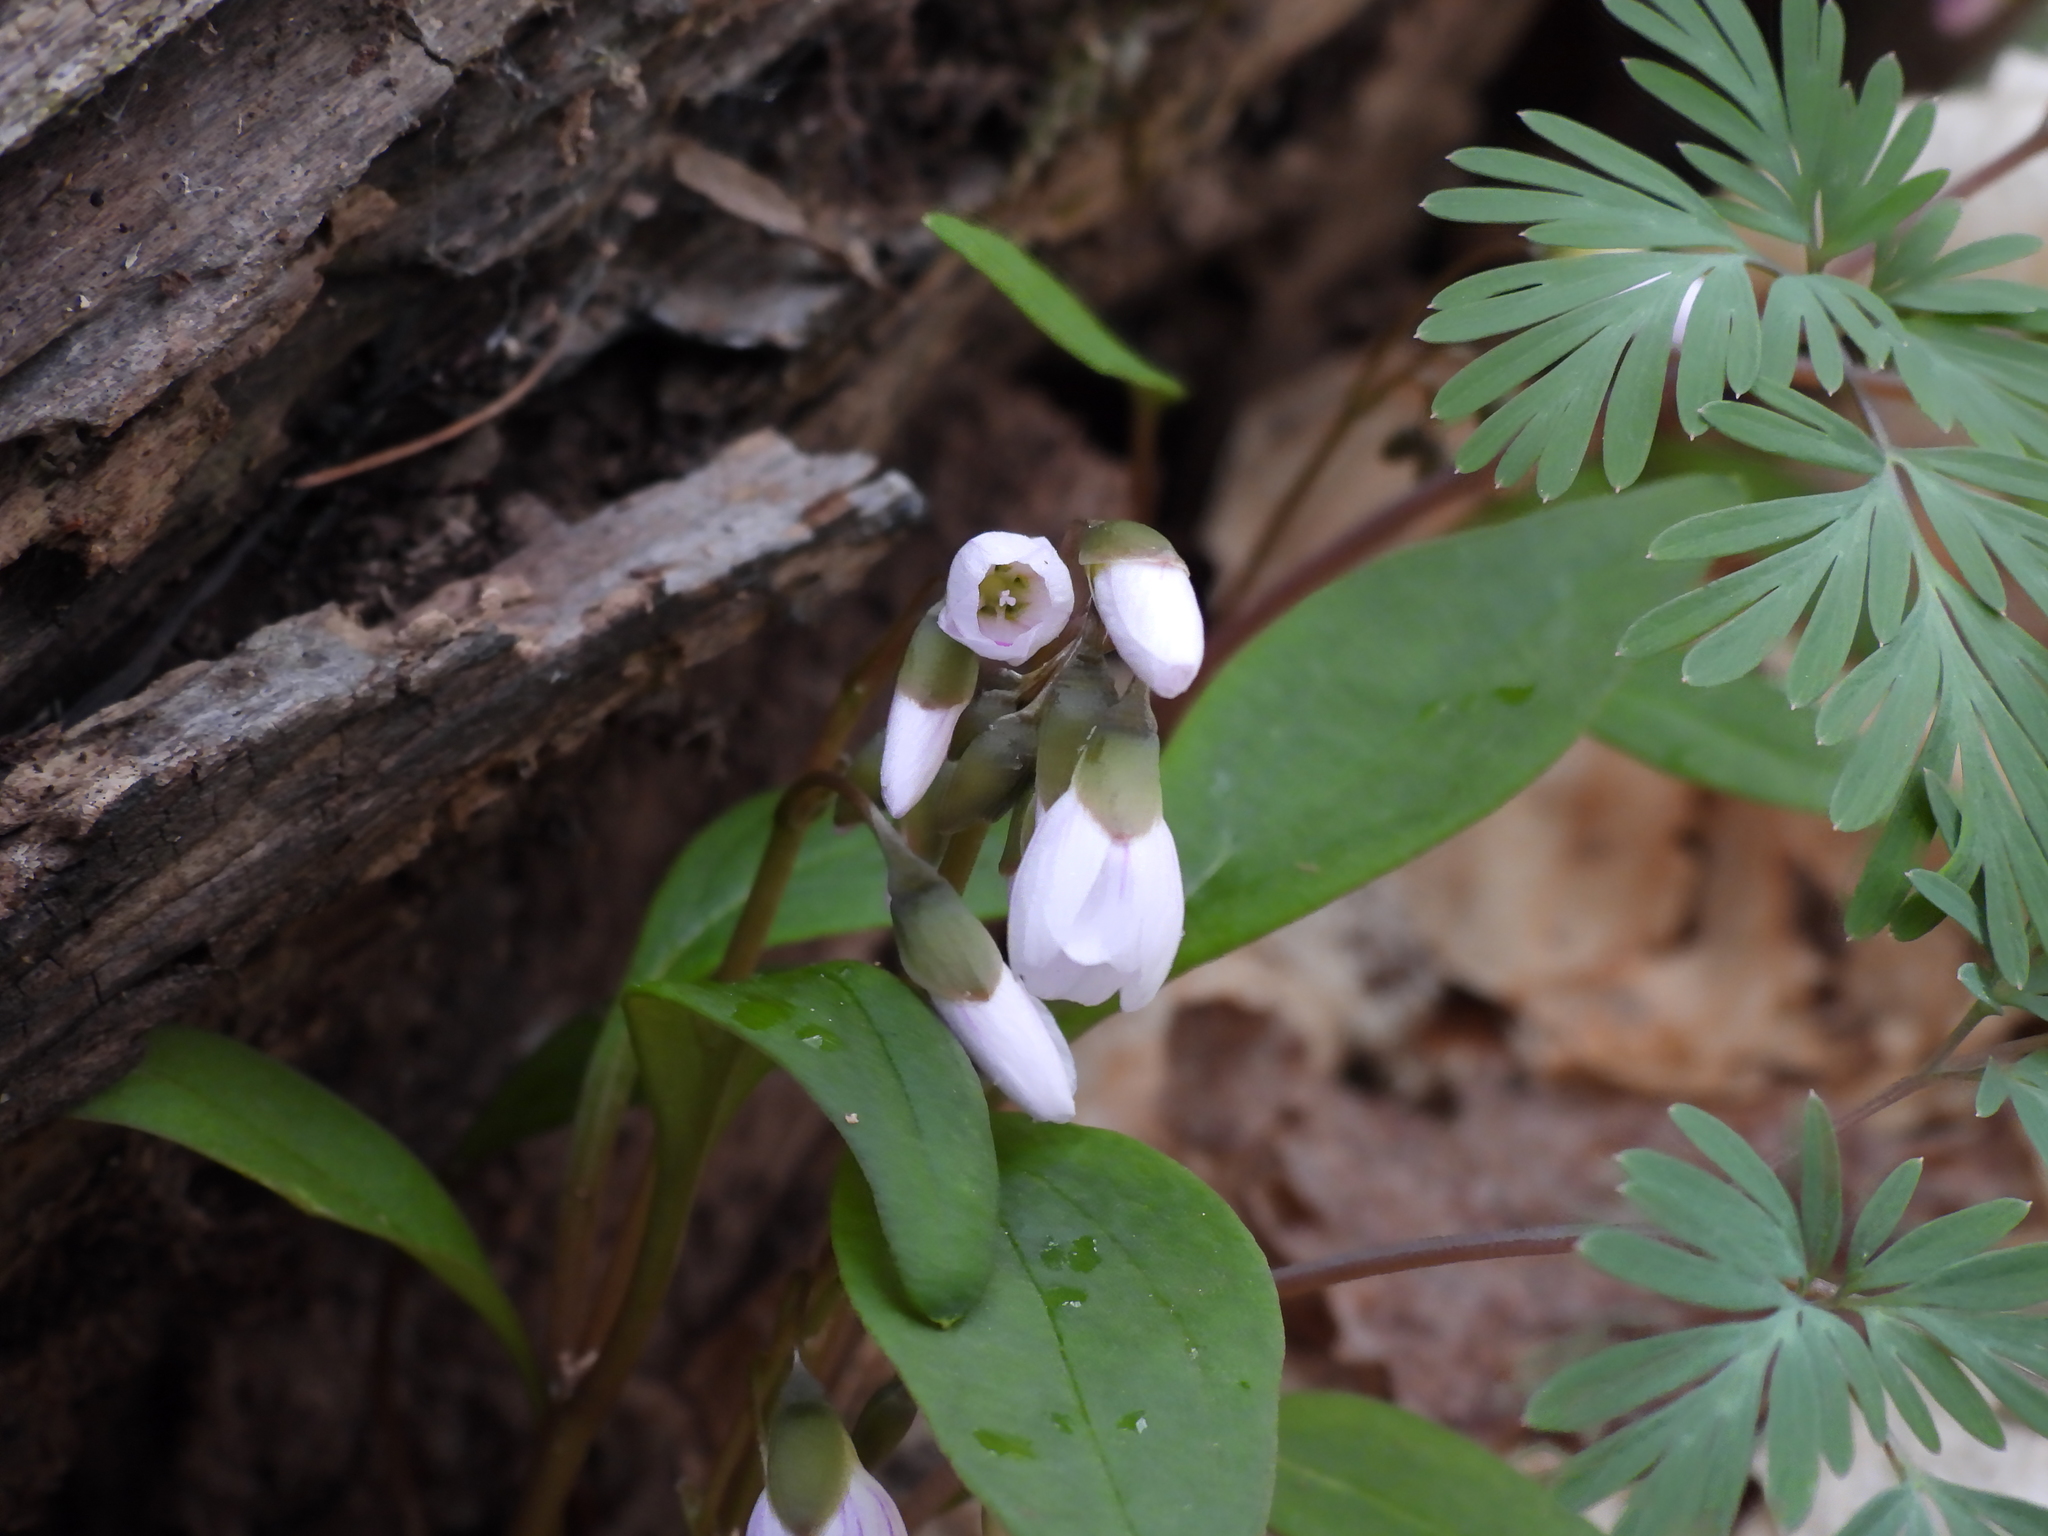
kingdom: Plantae
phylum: Tracheophyta
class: Magnoliopsida
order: Caryophyllales
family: Montiaceae
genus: Claytonia
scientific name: Claytonia caroliniana
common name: Carolina spring beauty
